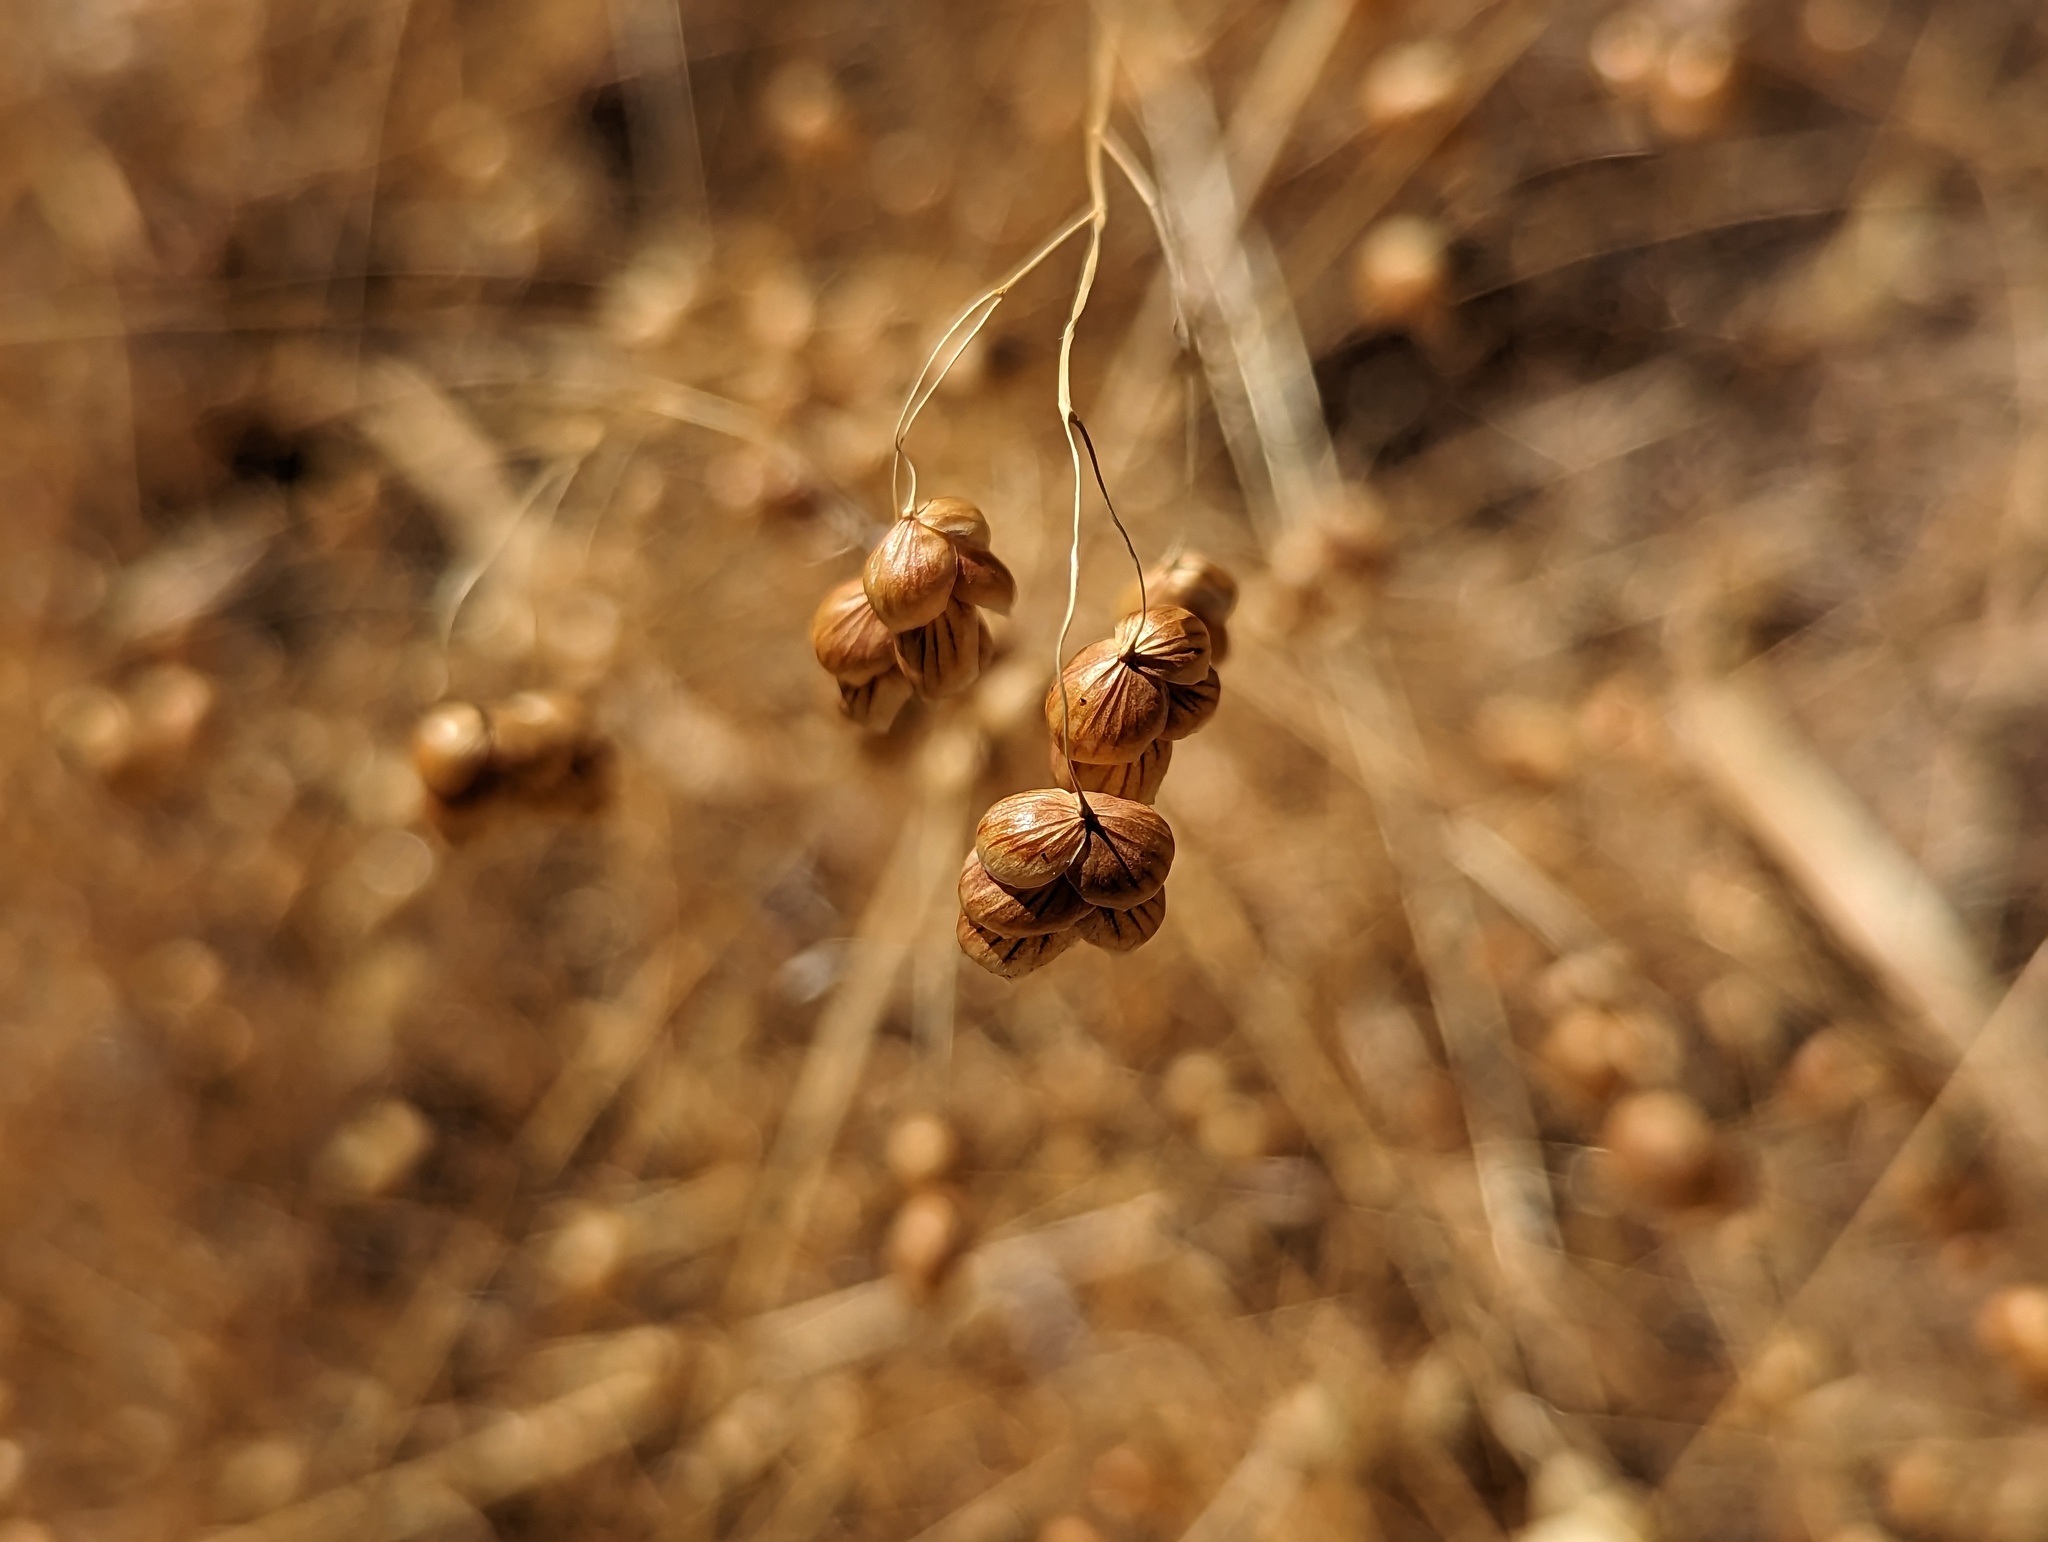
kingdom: Plantae
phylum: Tracheophyta
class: Liliopsida
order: Poales
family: Poaceae
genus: Briza
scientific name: Briza maxima
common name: Big quakinggrass
